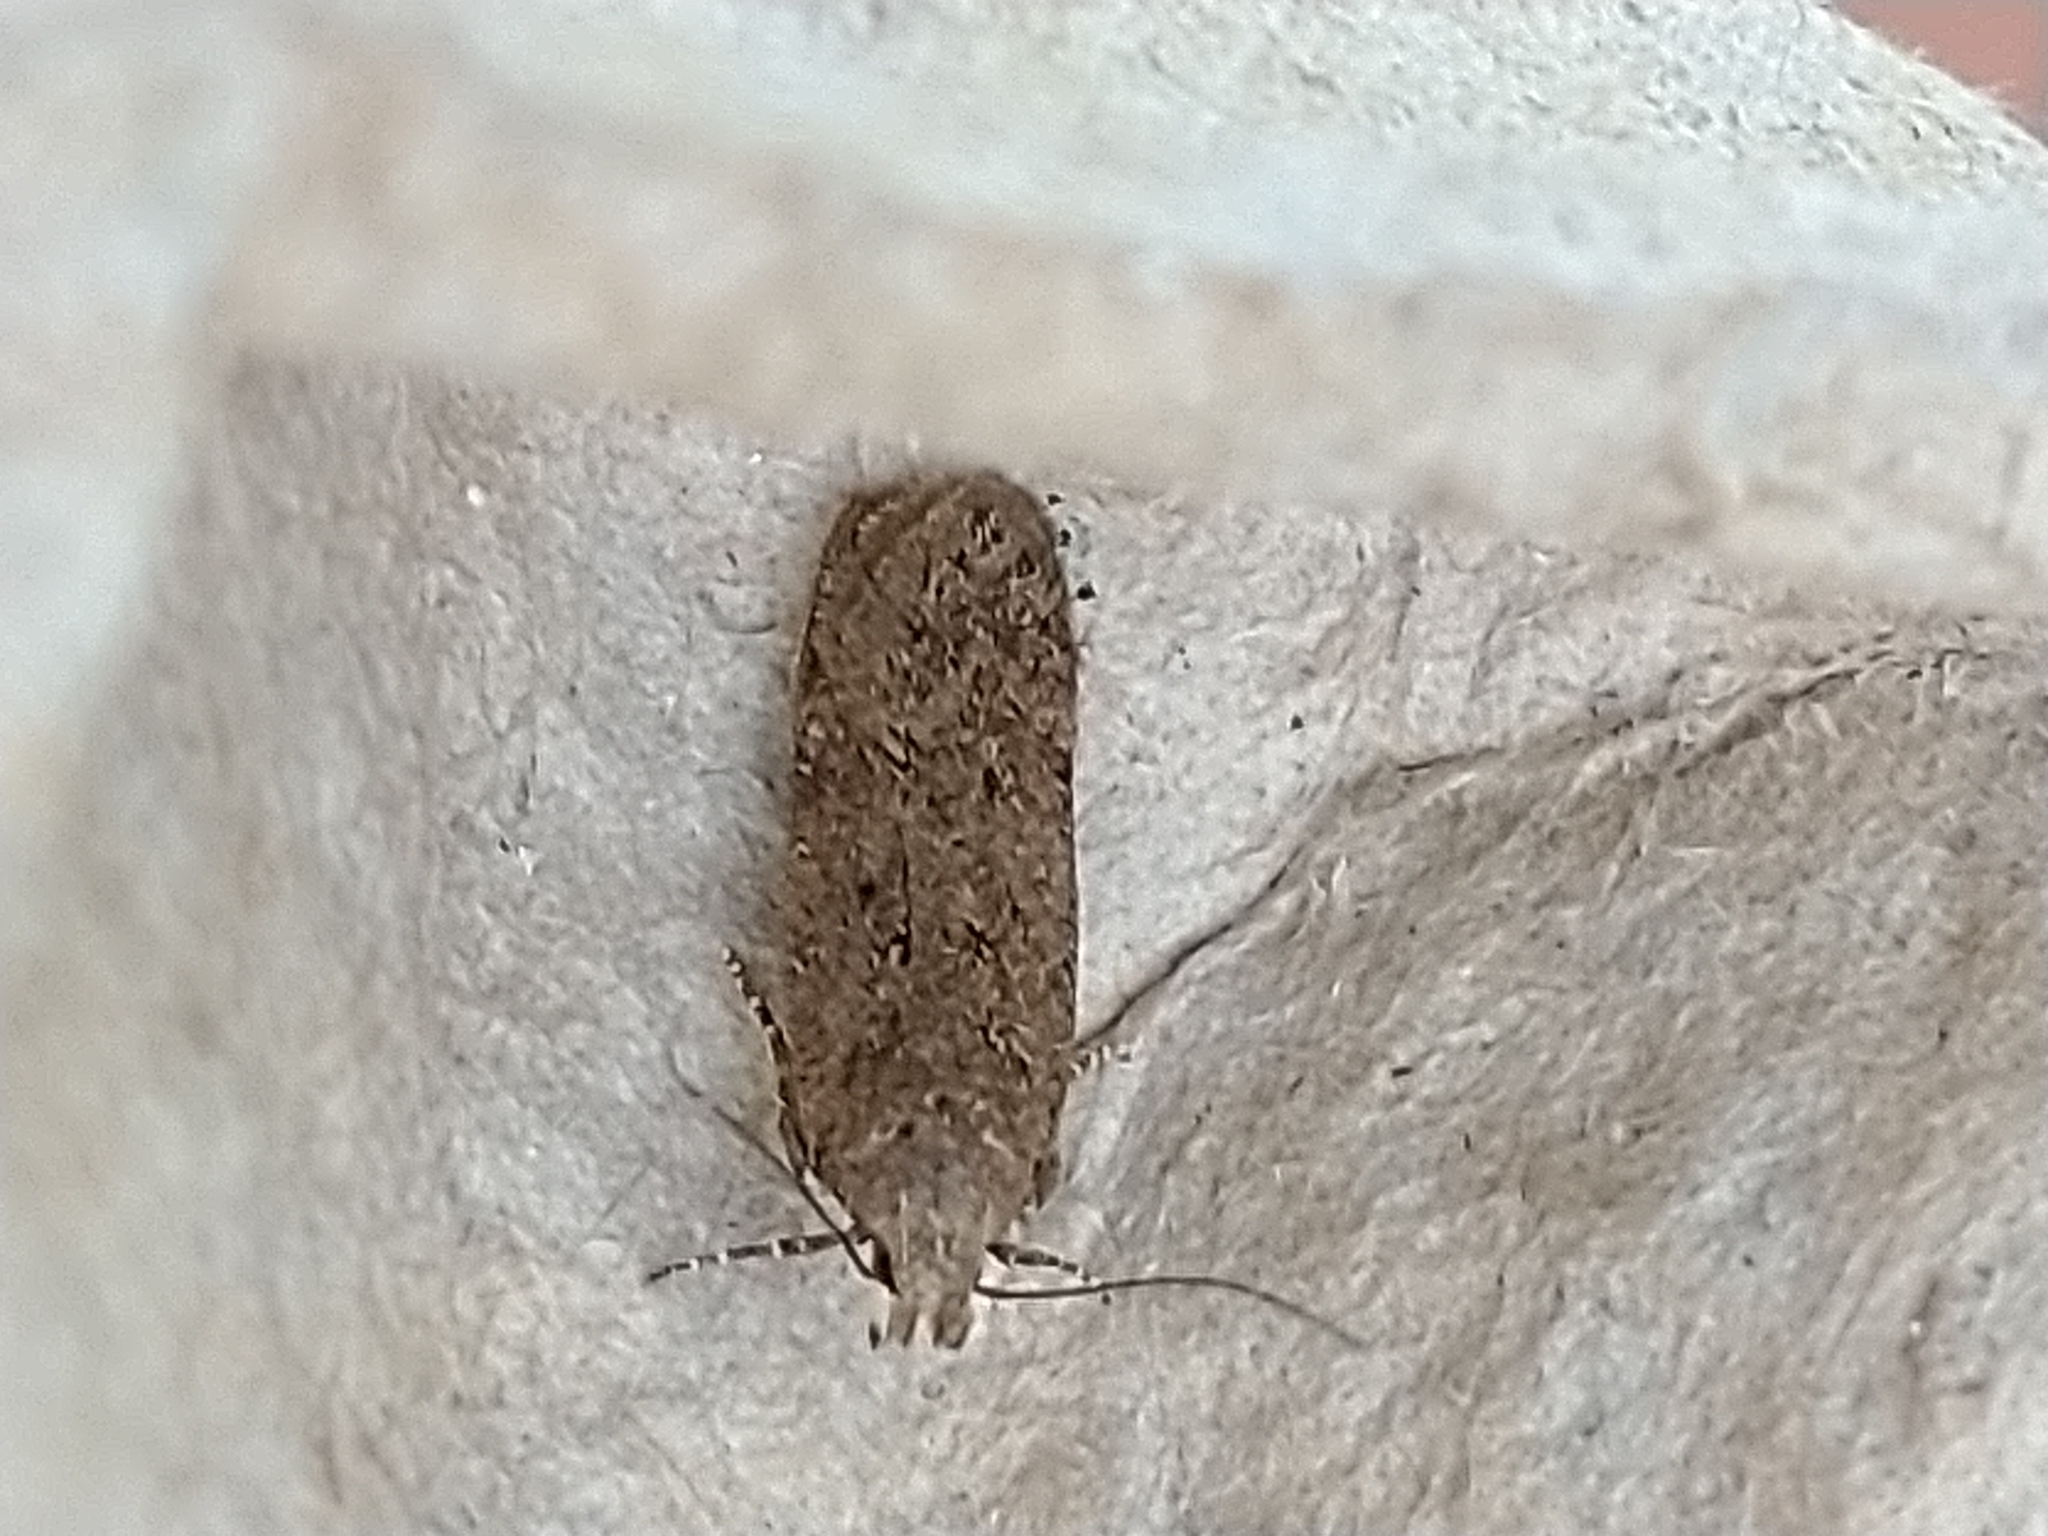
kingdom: Animalia
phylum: Arthropoda
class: Insecta
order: Lepidoptera
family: Gelechiidae
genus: Bryotropha
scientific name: Bryotropha terrella
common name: Cinerous groundling
